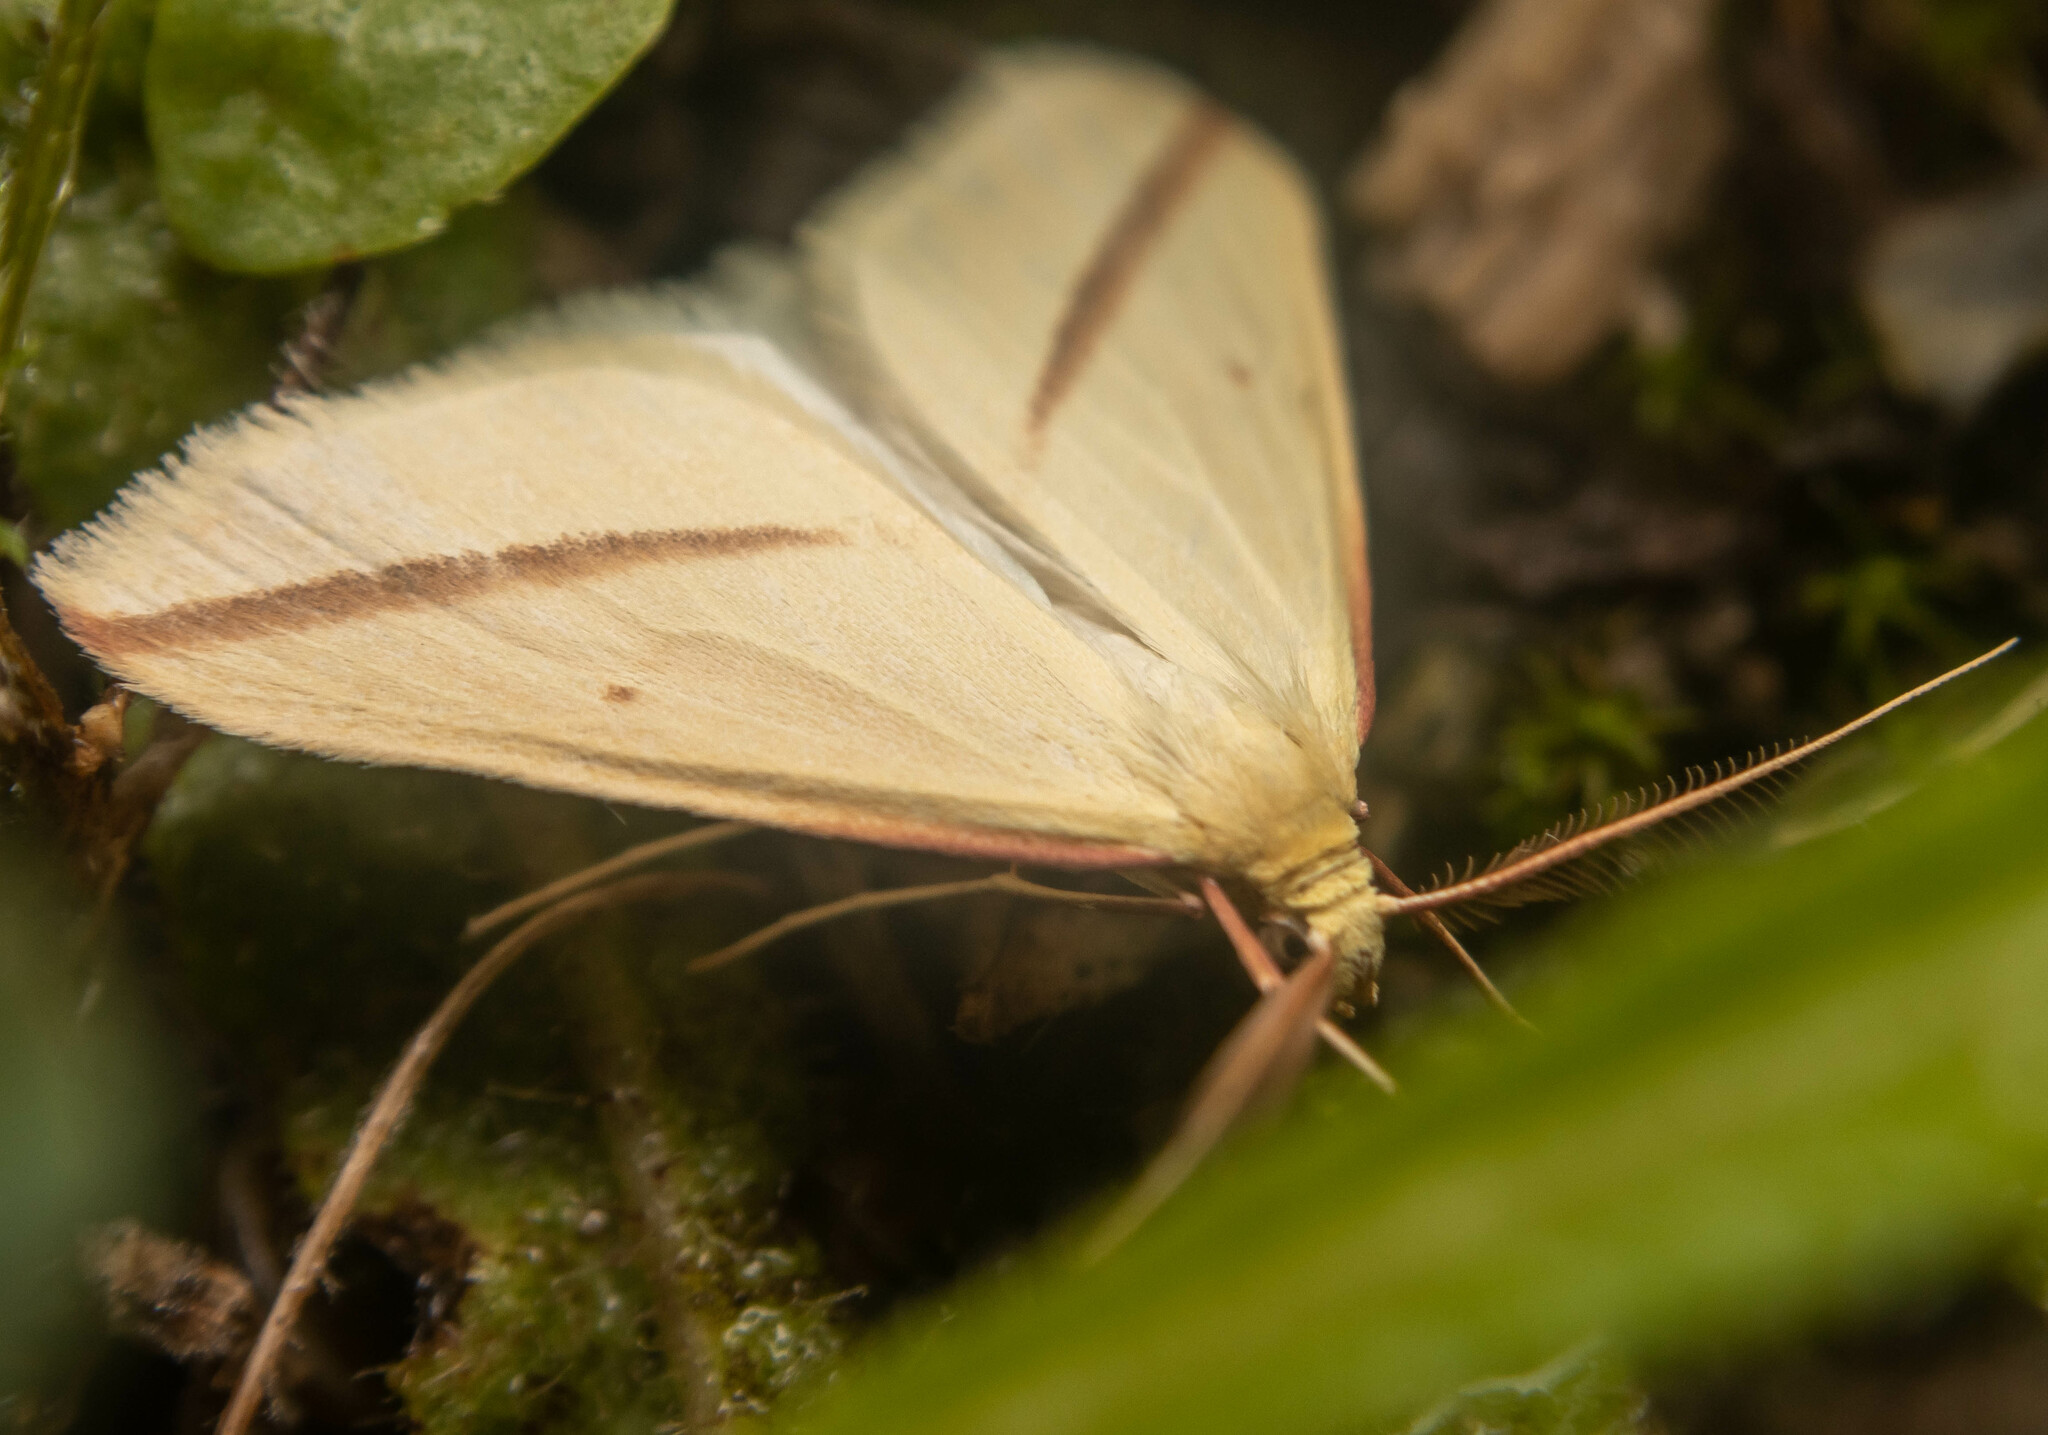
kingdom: Animalia
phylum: Arthropoda
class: Insecta
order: Lepidoptera
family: Geometridae
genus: Rhodometra
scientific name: Rhodometra sacraria
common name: Vestal
